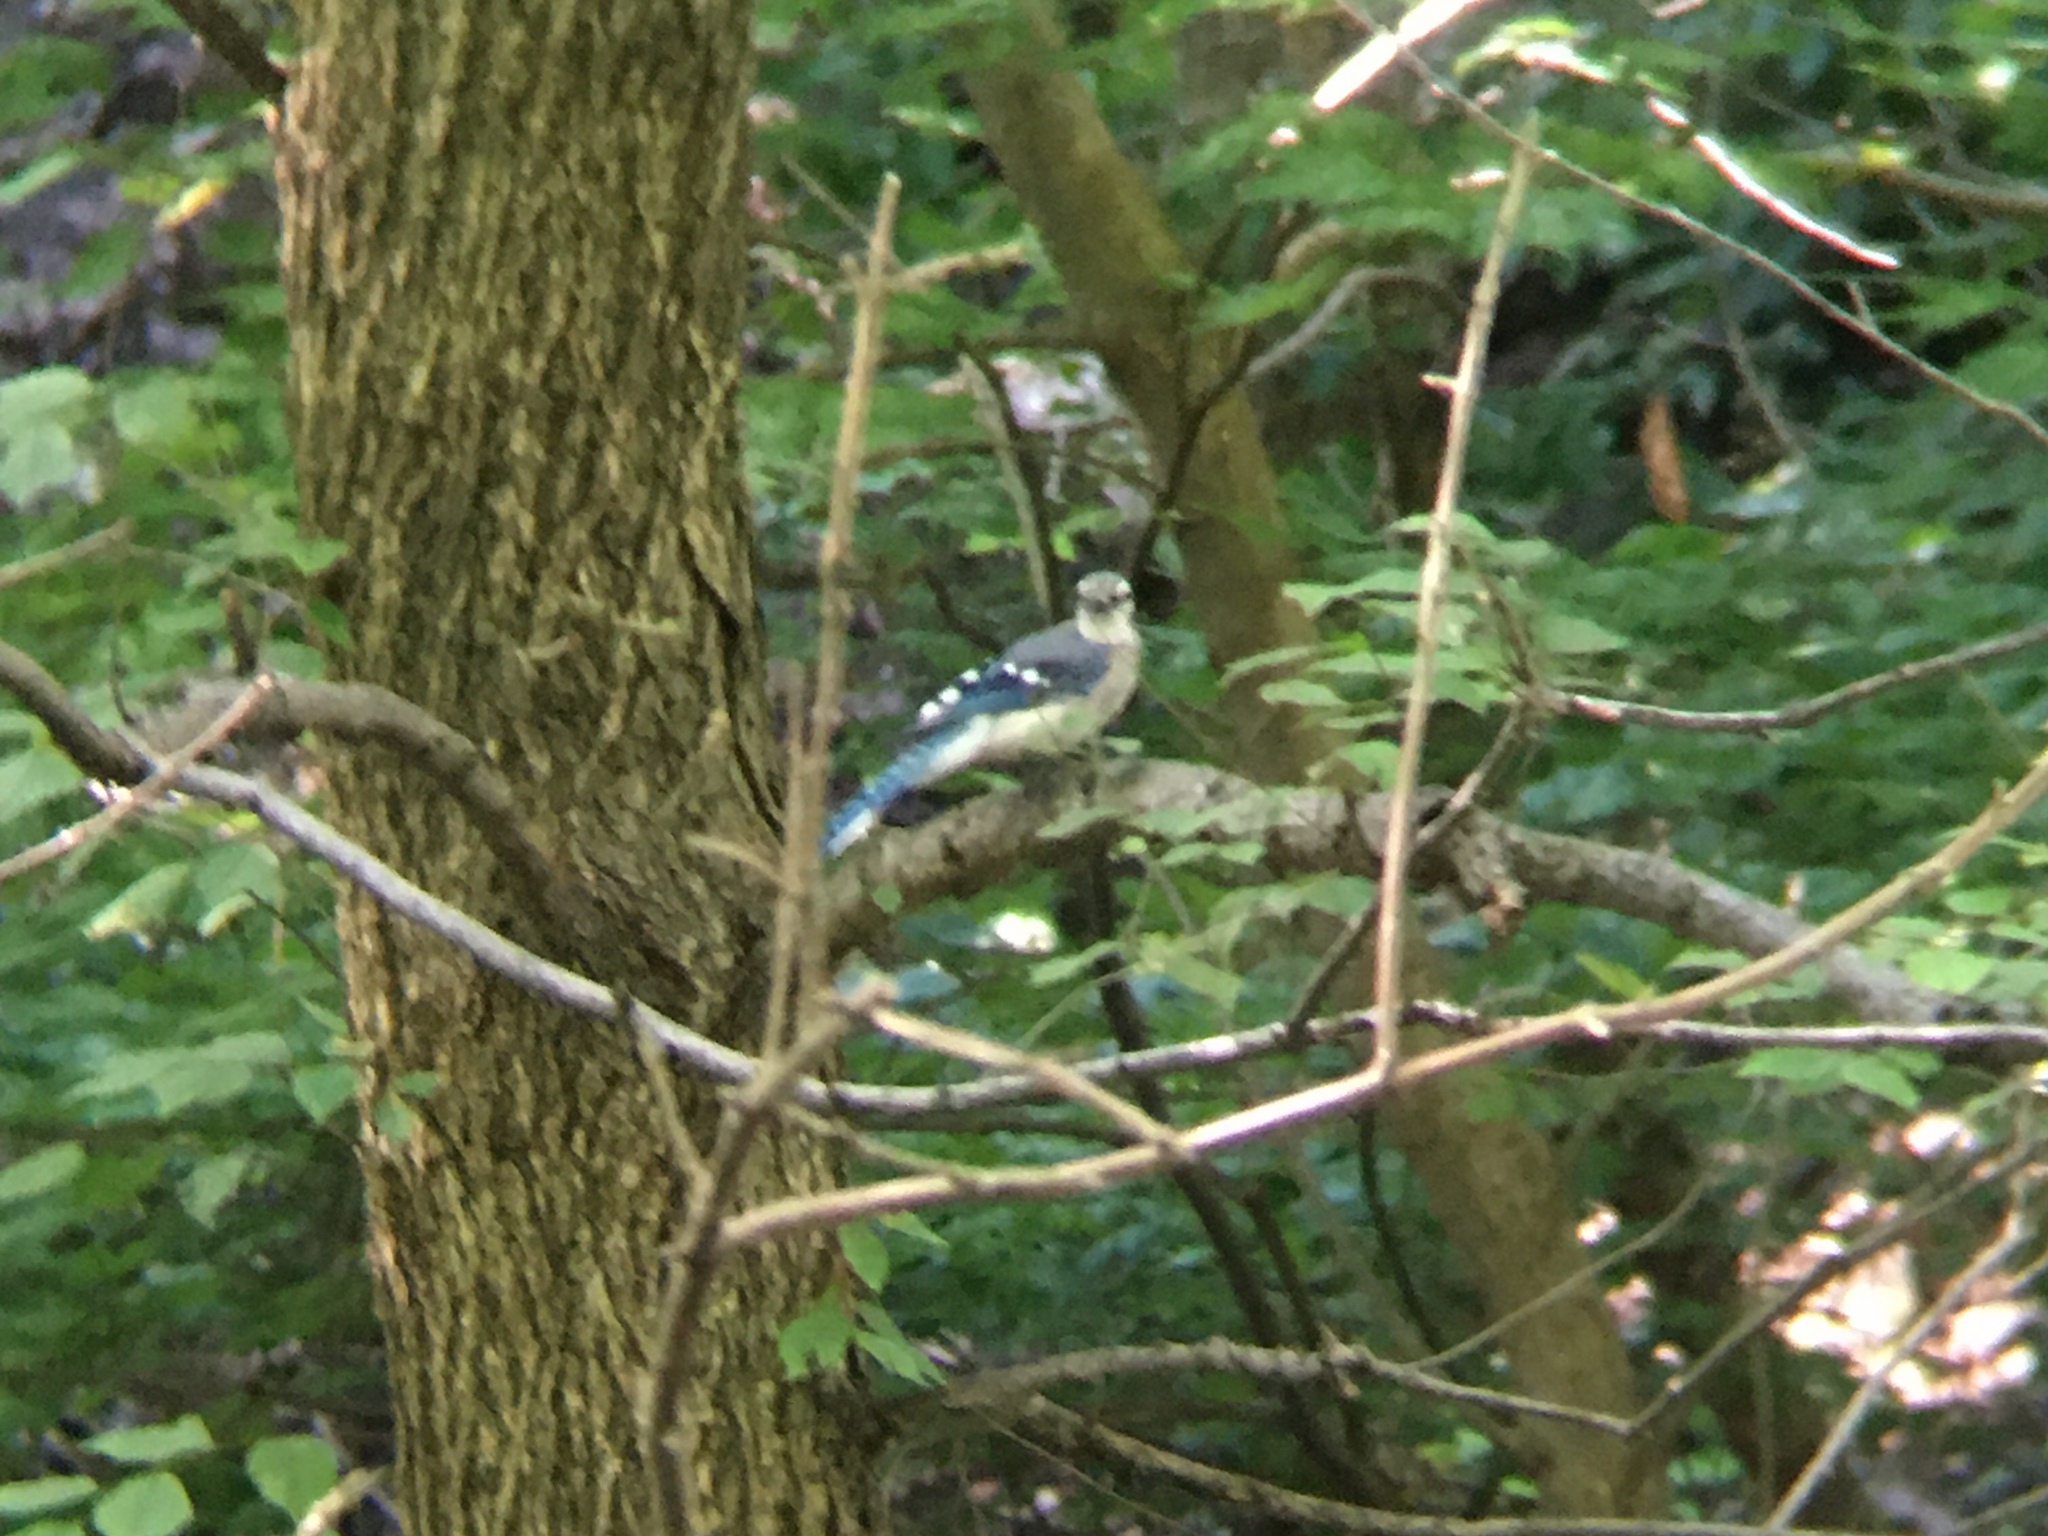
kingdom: Animalia
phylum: Chordata
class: Aves
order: Passeriformes
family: Corvidae
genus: Cyanocitta
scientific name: Cyanocitta cristata
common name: Blue jay
